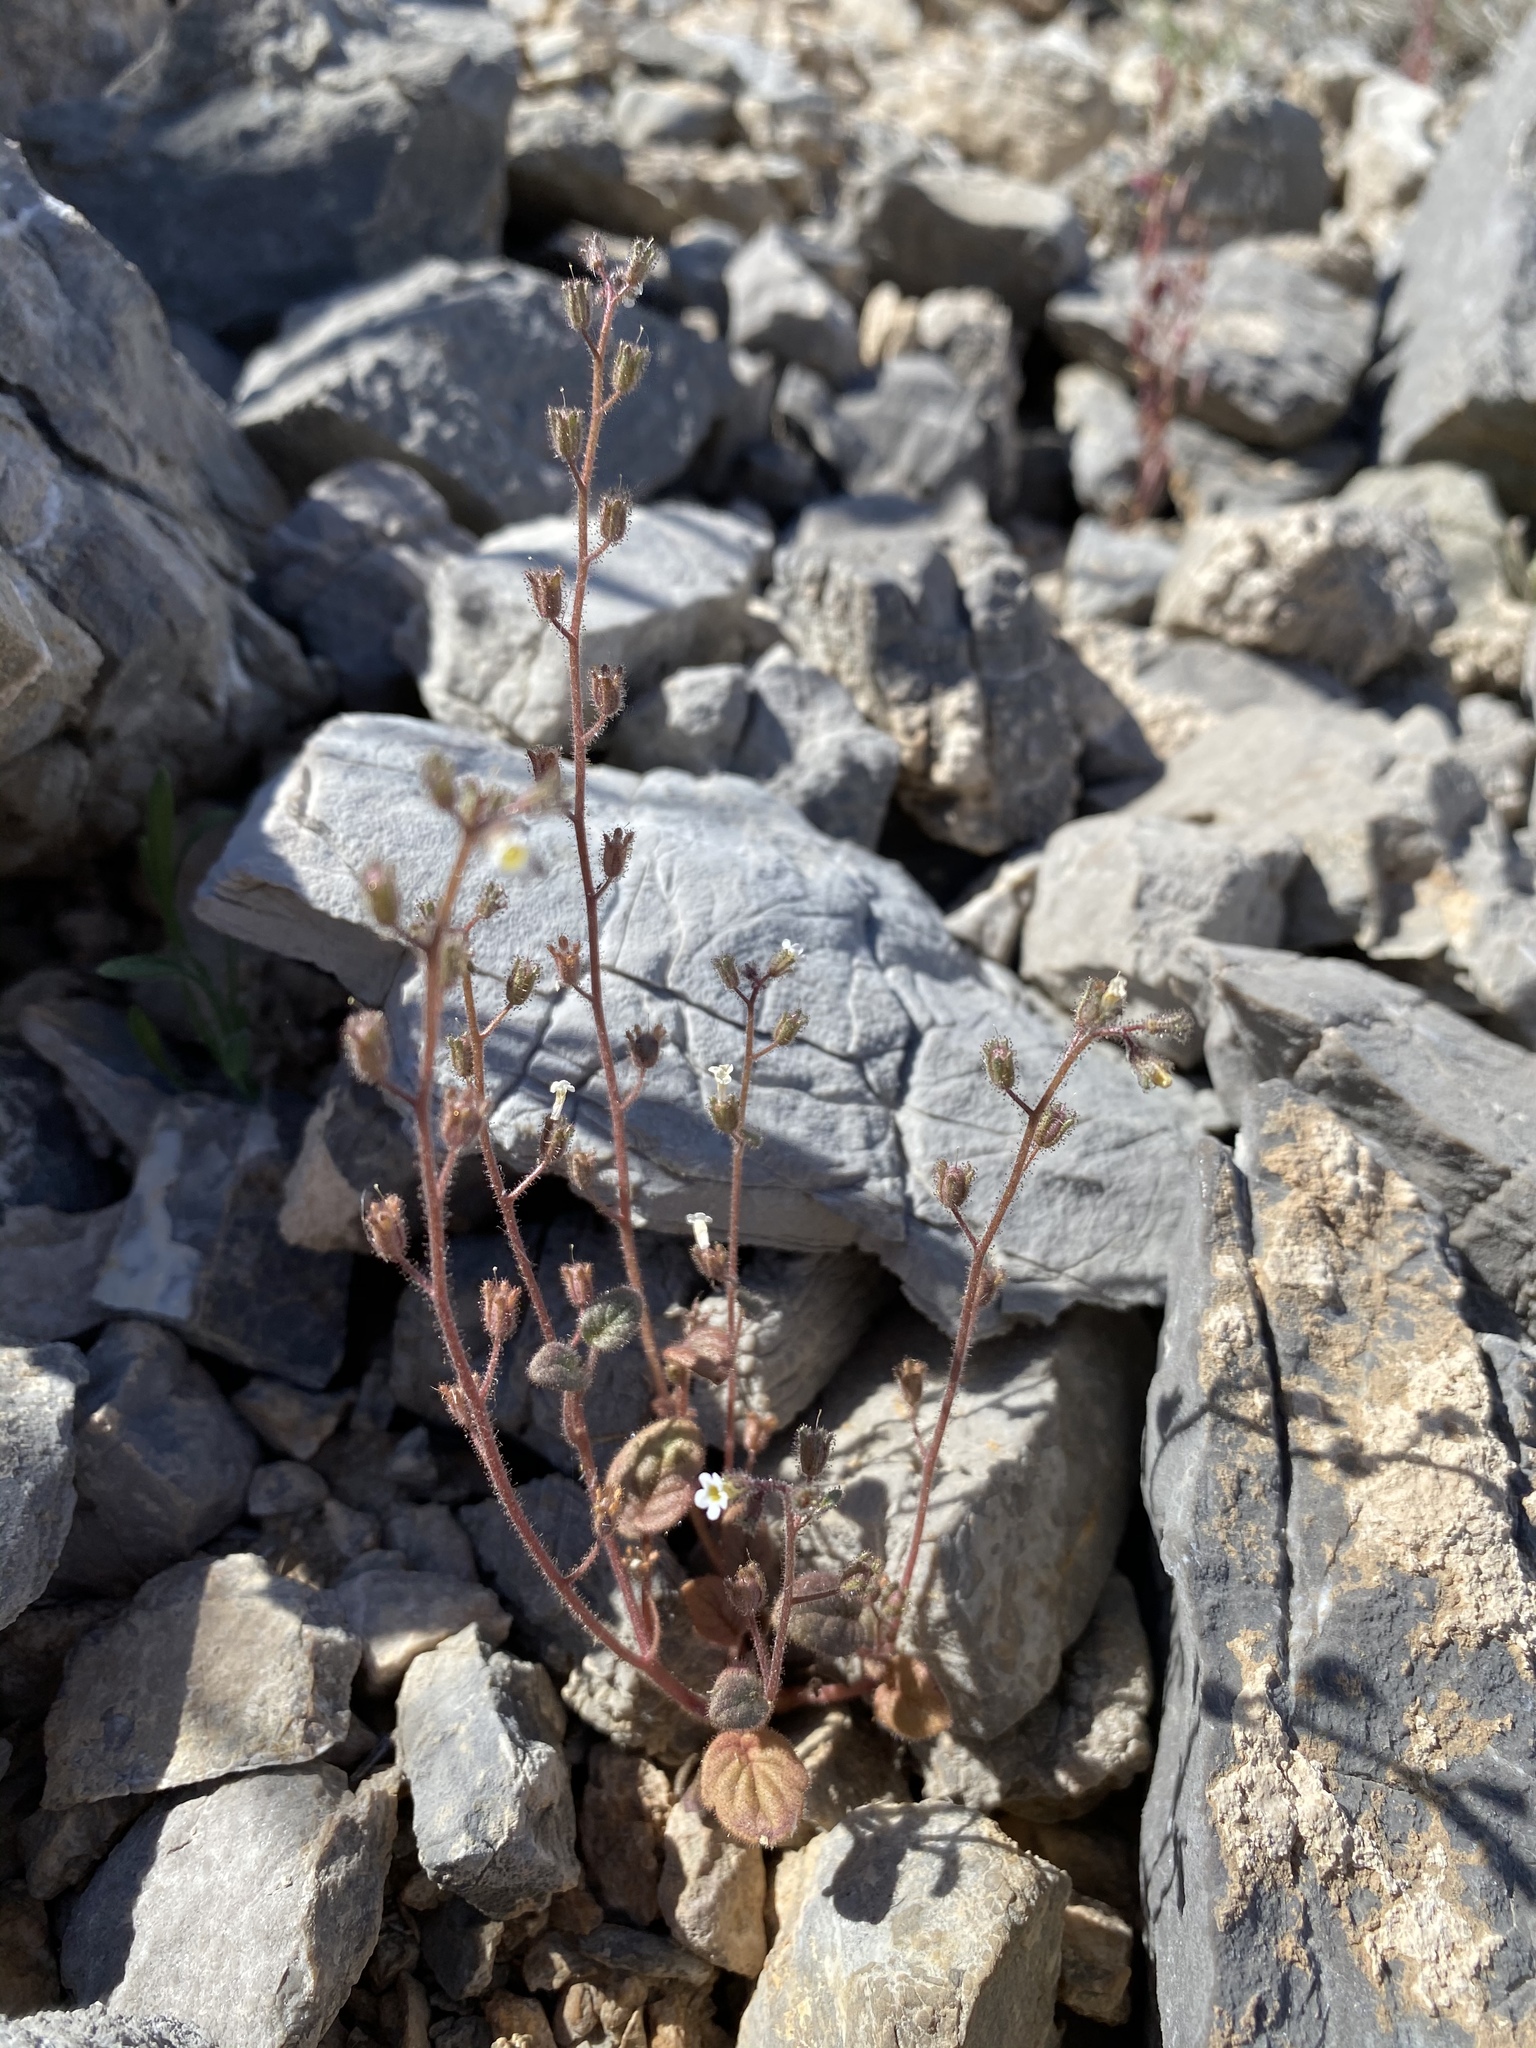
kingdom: Plantae
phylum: Tracheophyta
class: Magnoliopsida
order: Boraginales
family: Hydrophyllaceae
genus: Phacelia
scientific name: Phacelia barnebyana
